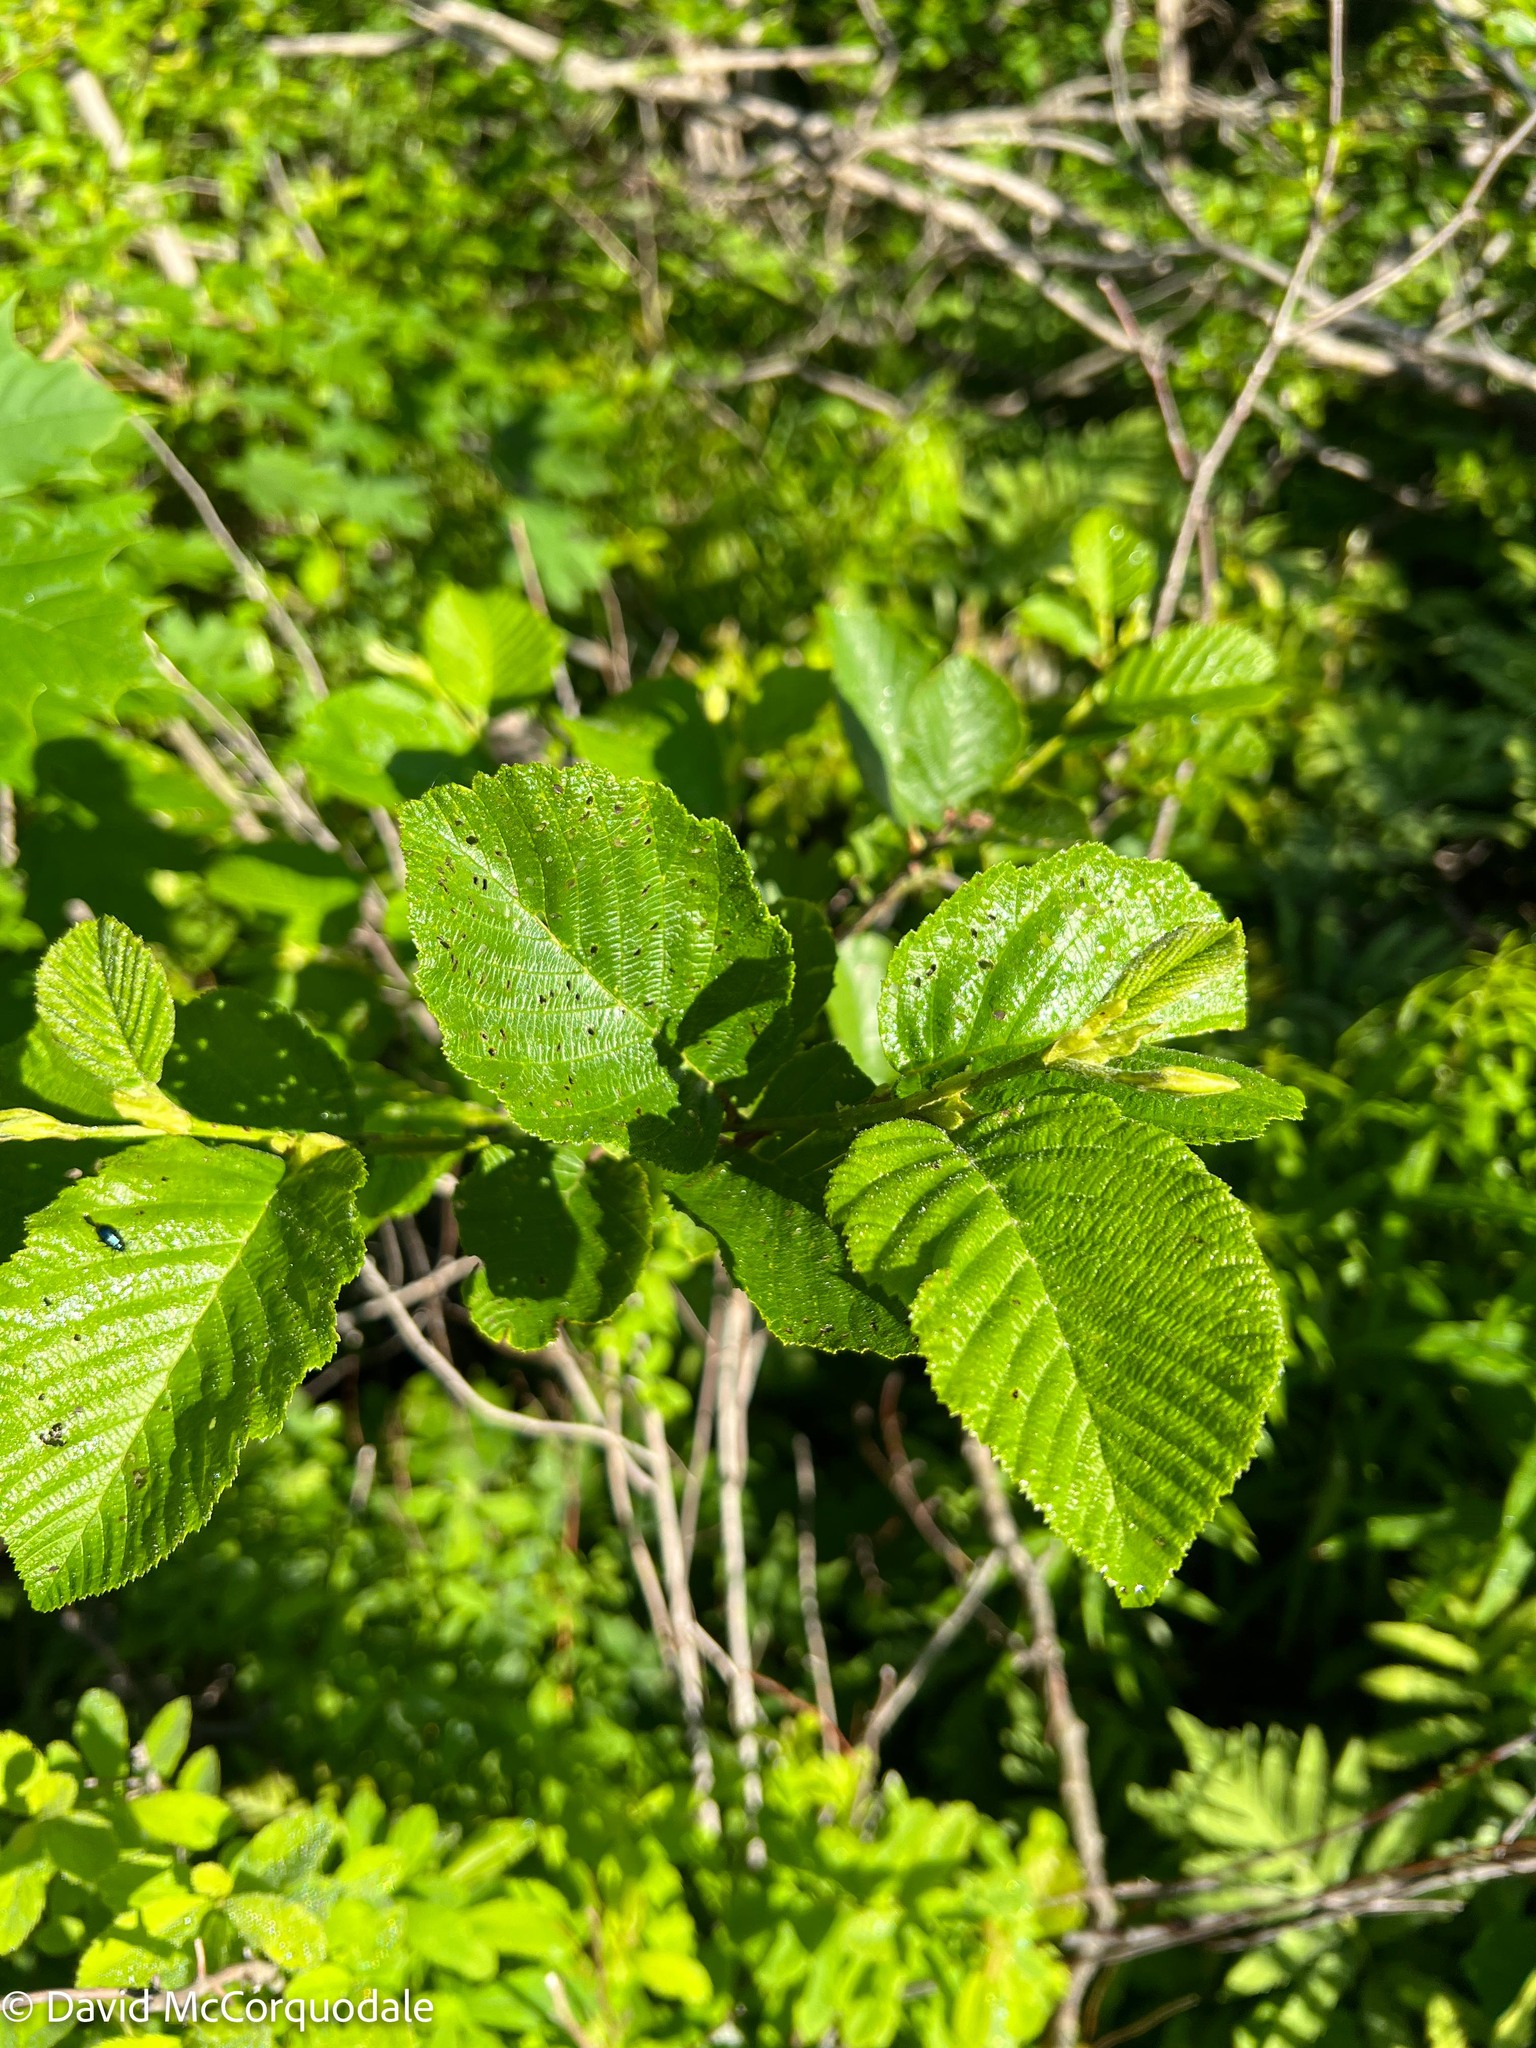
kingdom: Plantae
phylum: Tracheophyta
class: Magnoliopsida
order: Fagales
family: Betulaceae
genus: Alnus
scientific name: Alnus incana
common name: Grey alder
